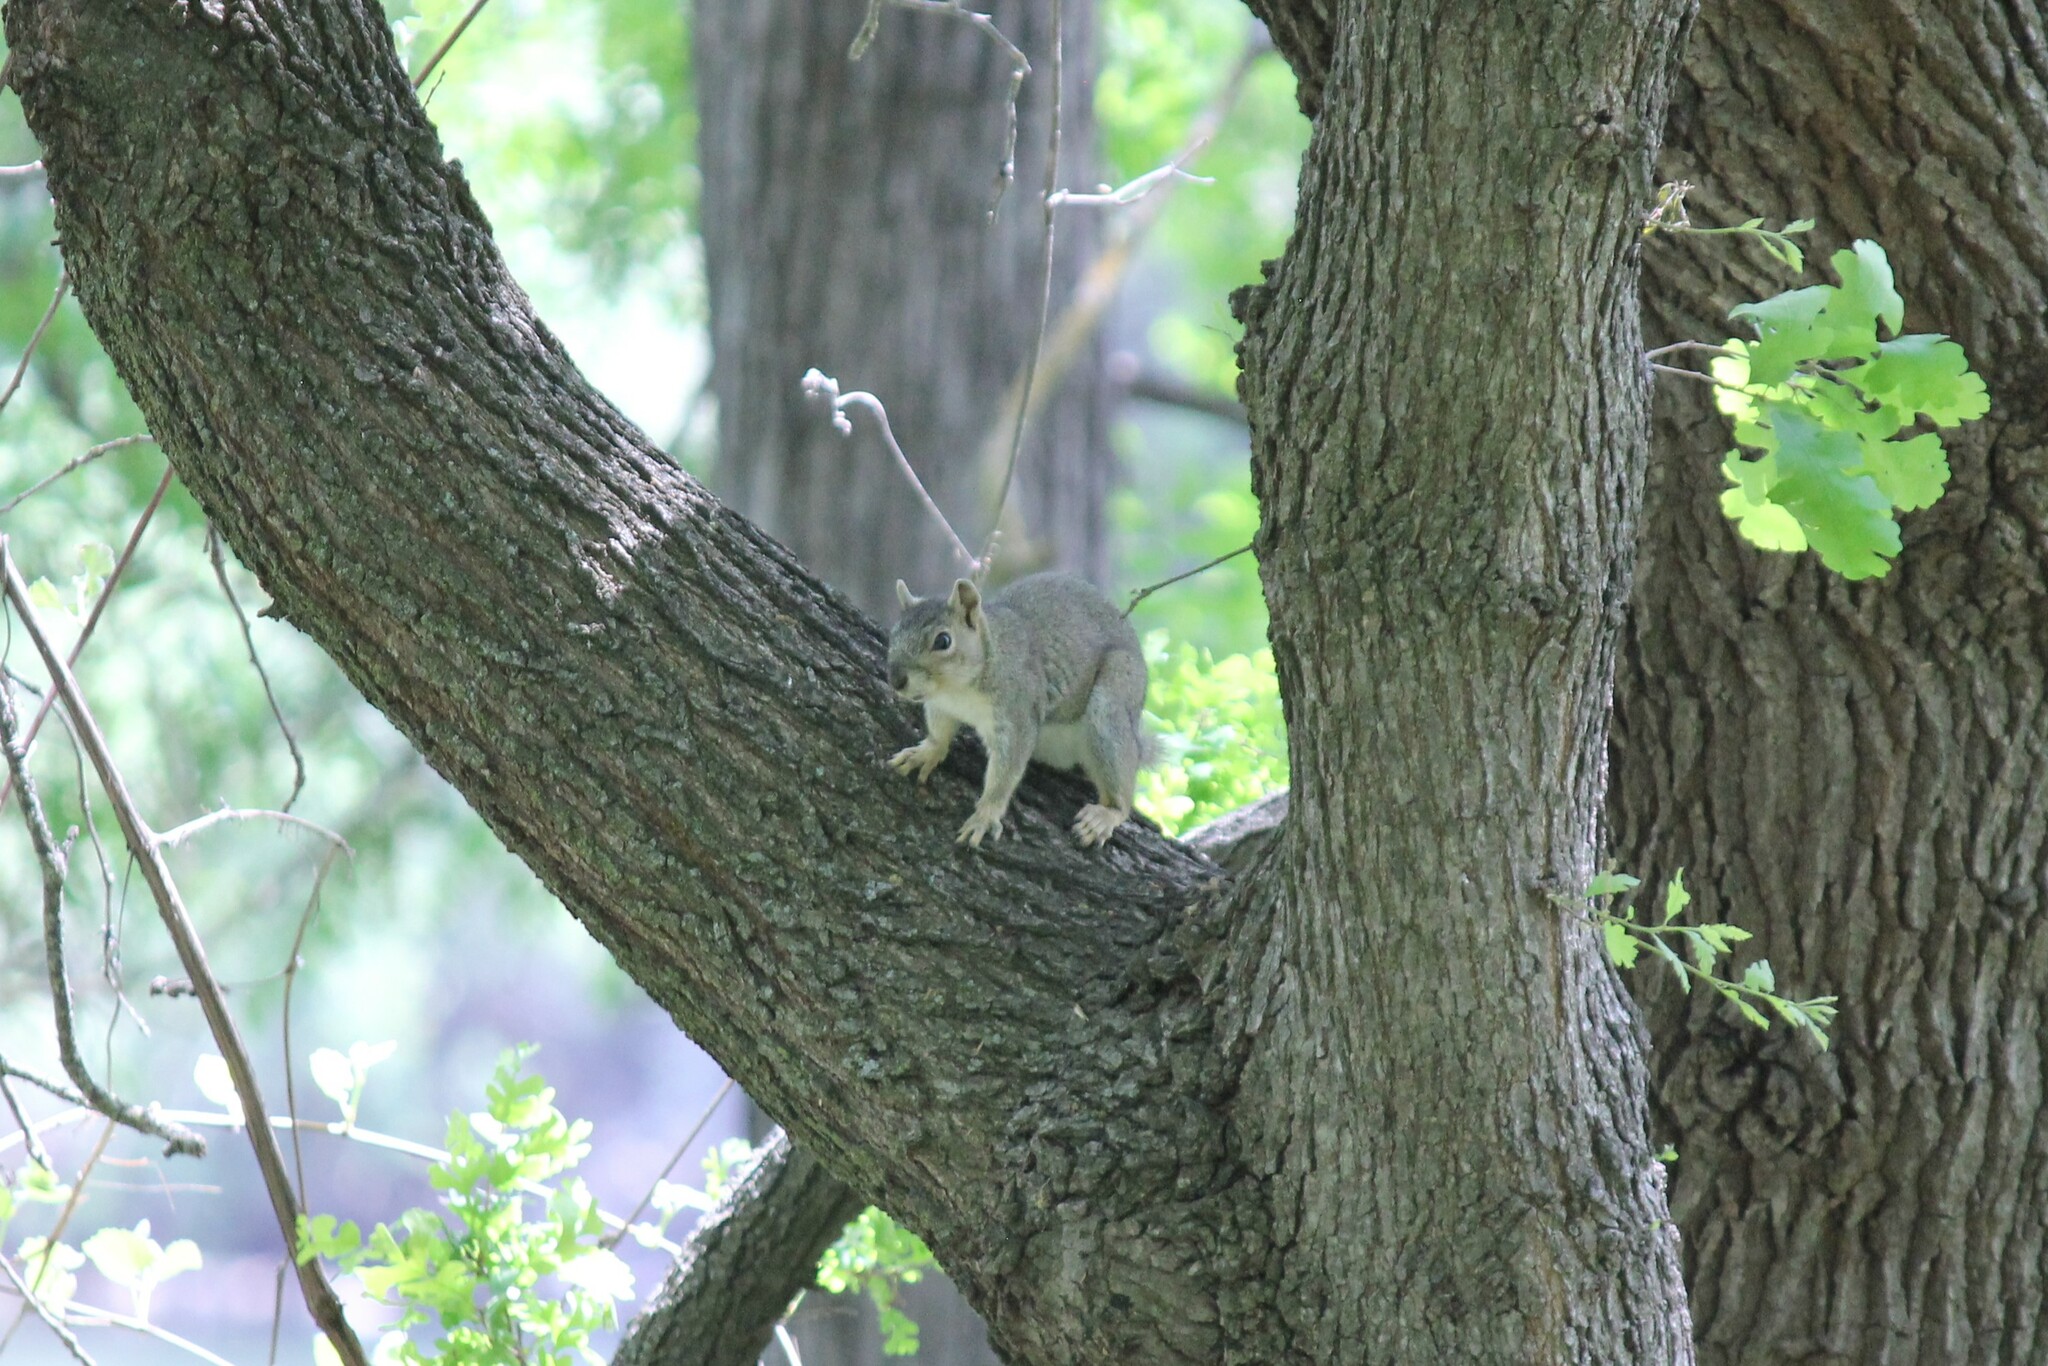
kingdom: Animalia
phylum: Chordata
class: Mammalia
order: Rodentia
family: Sciuridae
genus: Sciurus
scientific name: Sciurus niger
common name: Fox squirrel
